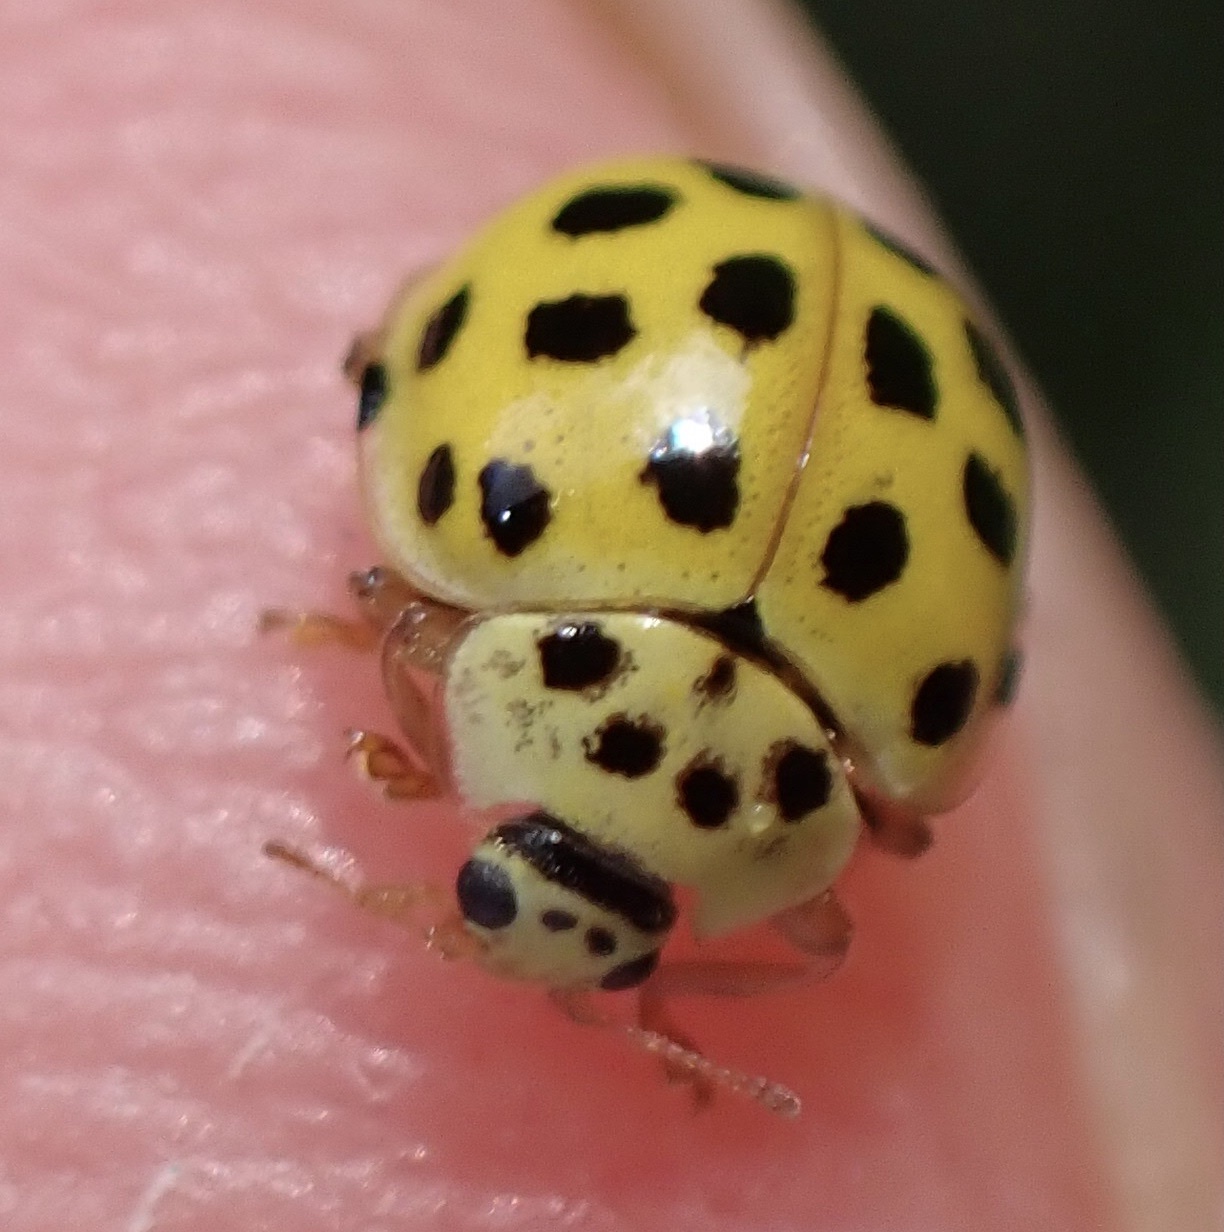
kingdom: Animalia
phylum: Arthropoda
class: Insecta
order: Coleoptera
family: Coccinellidae
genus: Psyllobora
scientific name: Psyllobora vigintiduopunctata
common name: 22-spot ladybird
